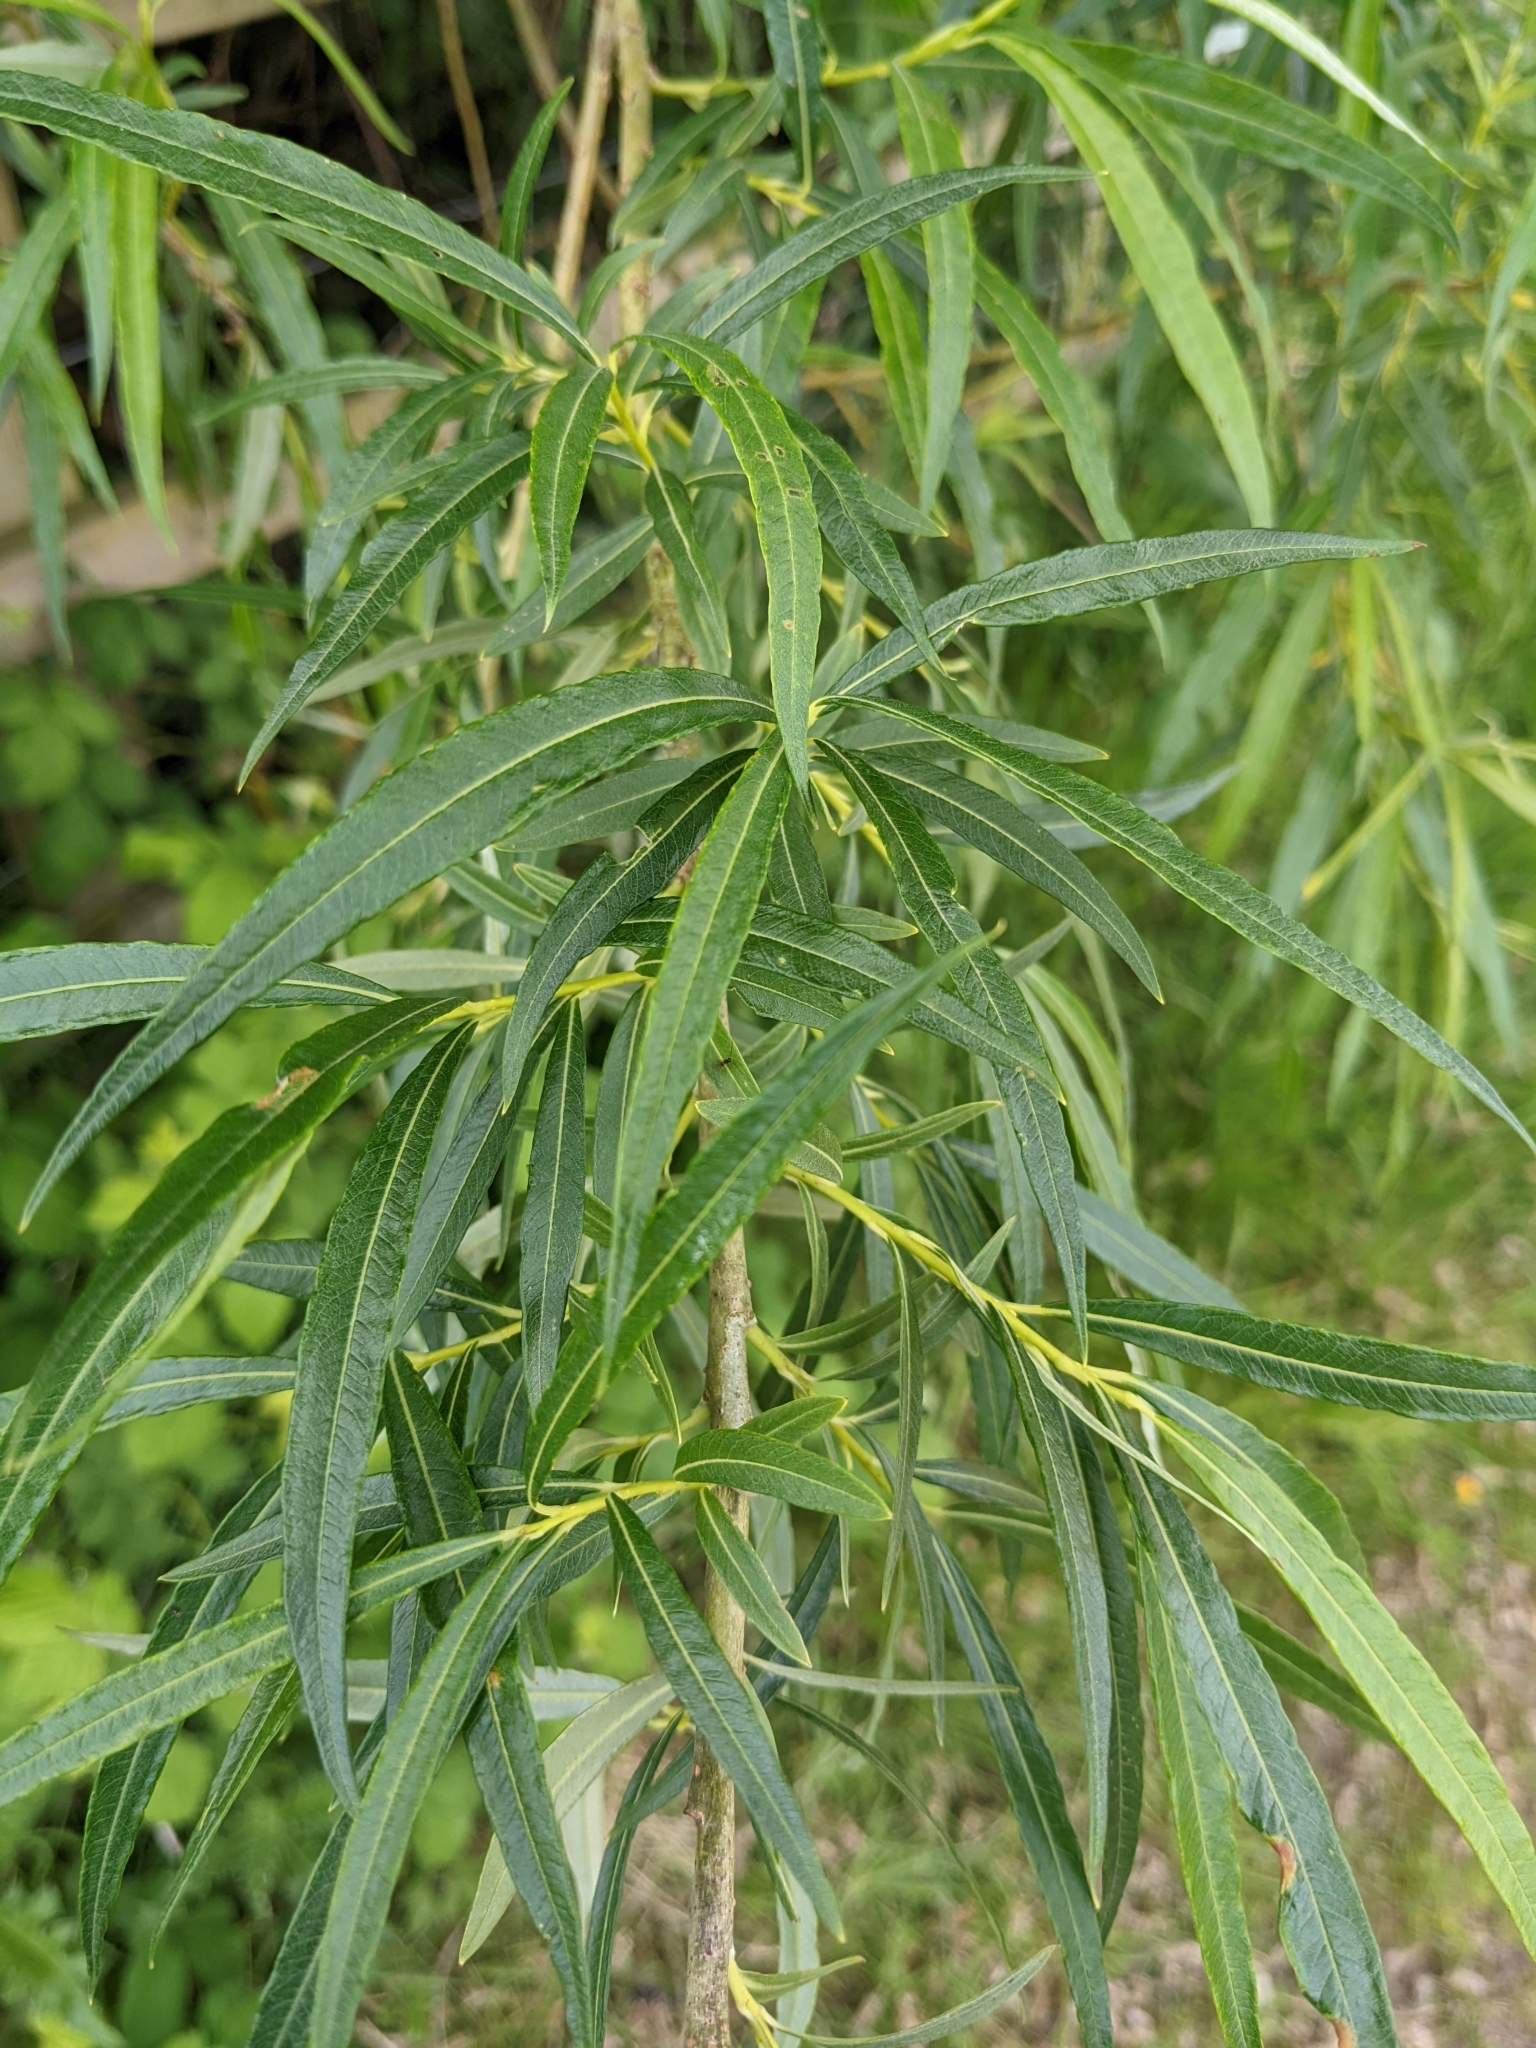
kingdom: Plantae
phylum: Tracheophyta
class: Magnoliopsida
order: Malpighiales
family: Salicaceae
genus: Salix
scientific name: Salix viminalis
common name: Osier
